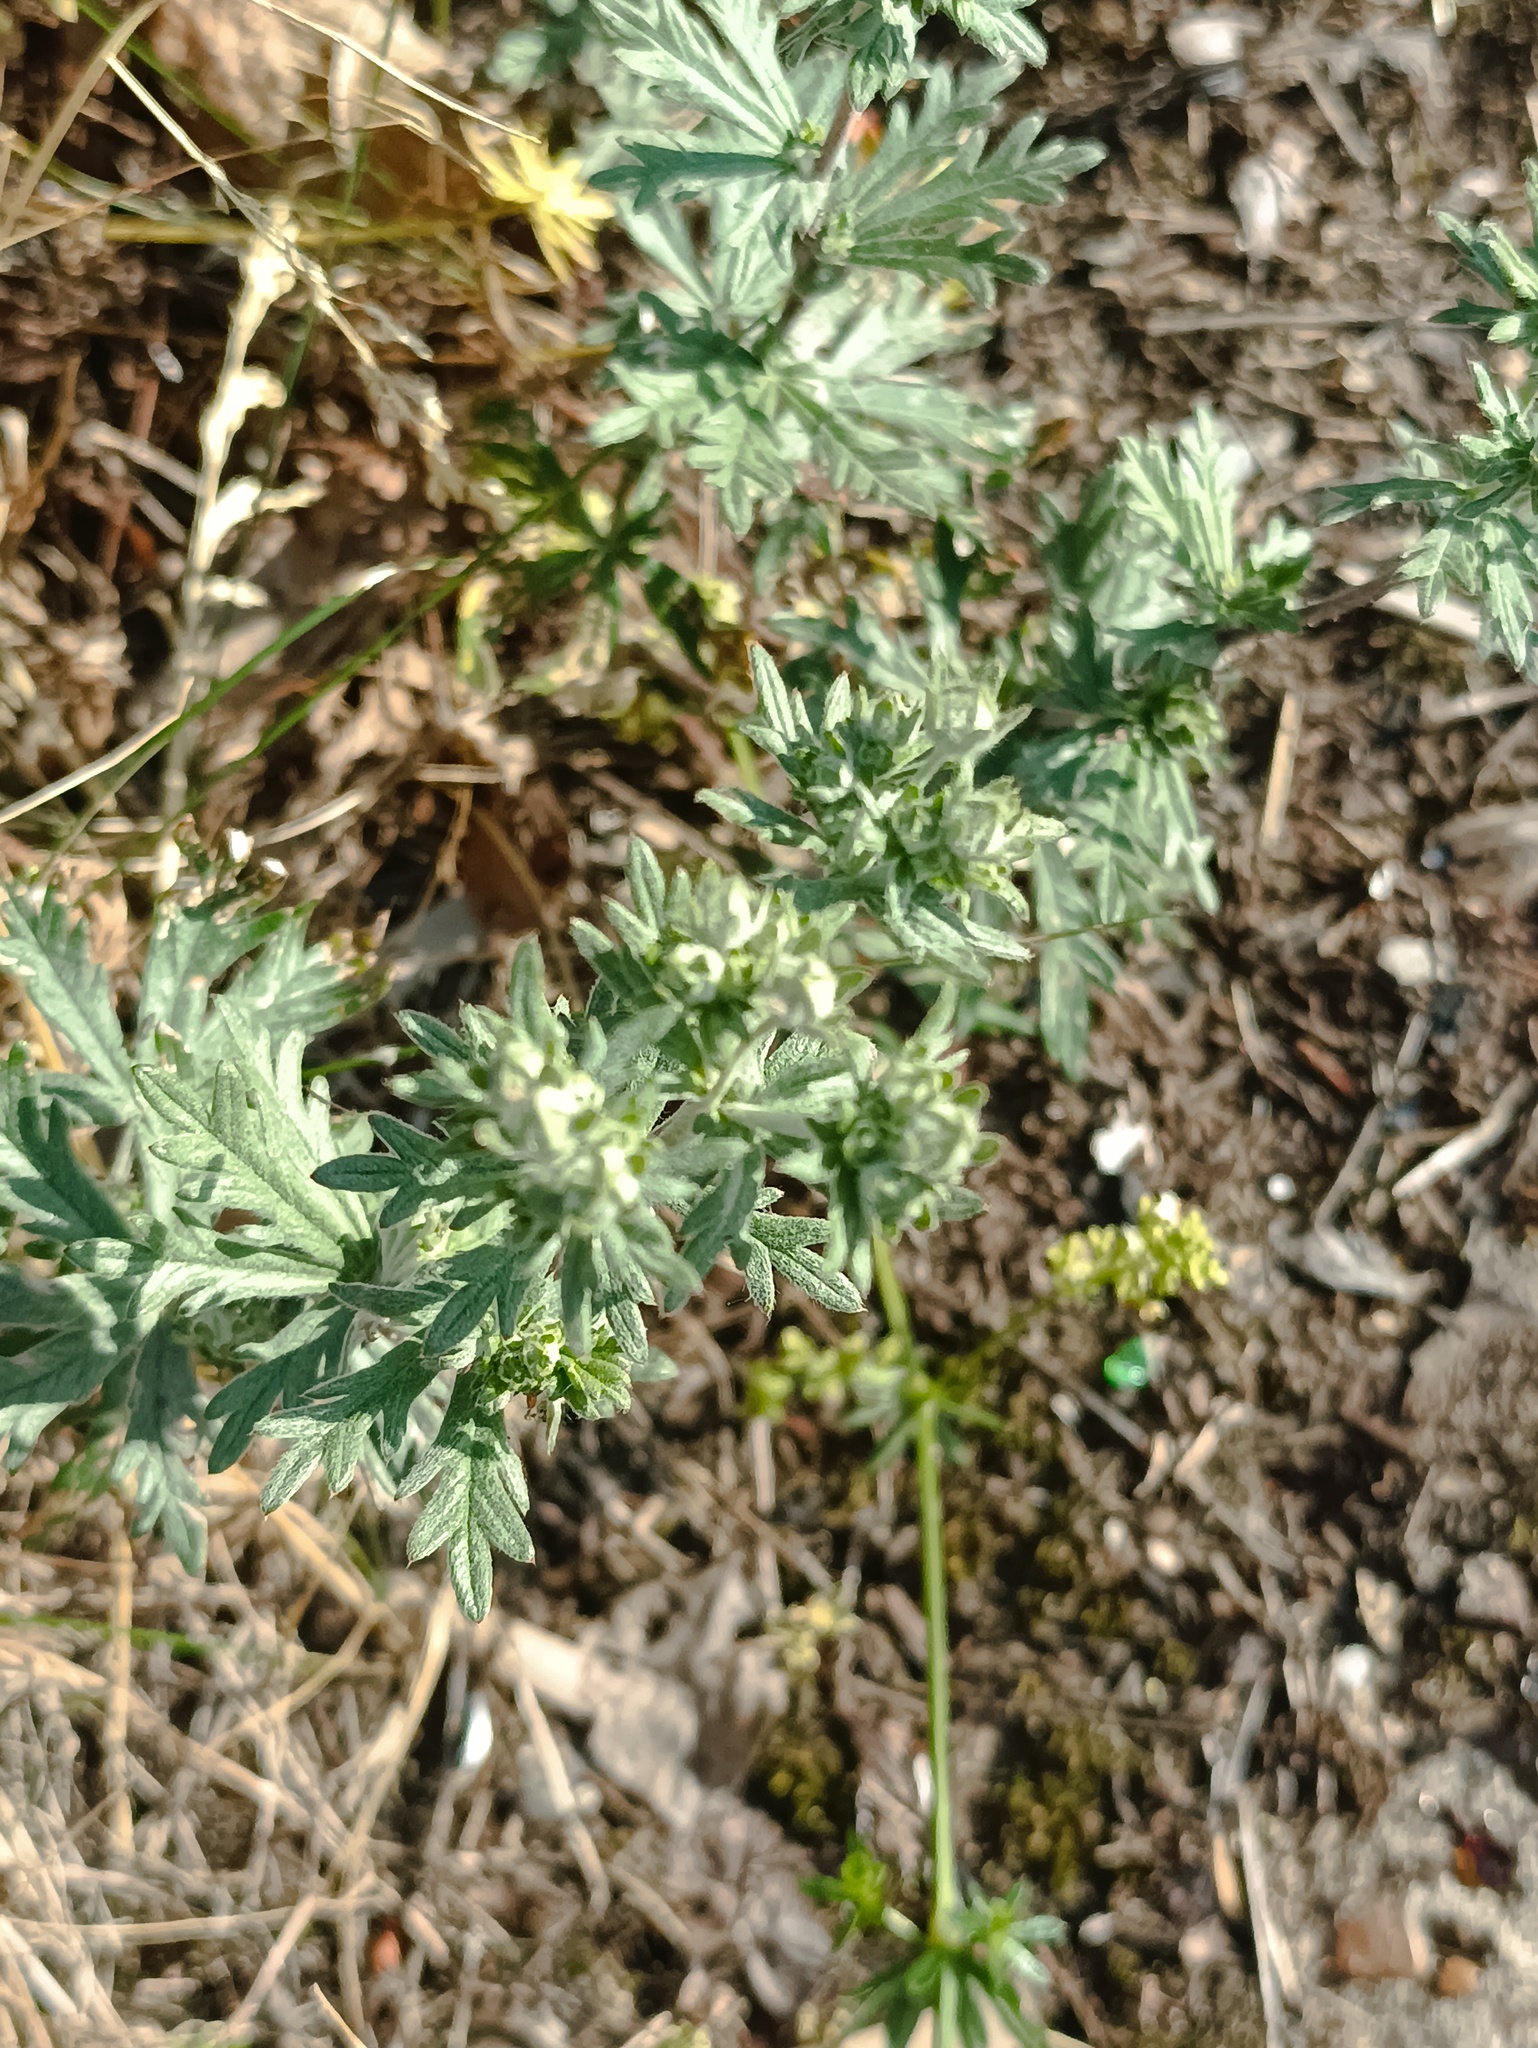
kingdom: Plantae
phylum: Tracheophyta
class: Magnoliopsida
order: Rosales
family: Rosaceae
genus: Potentilla
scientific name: Potentilla argentea
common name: Hoary cinquefoil
